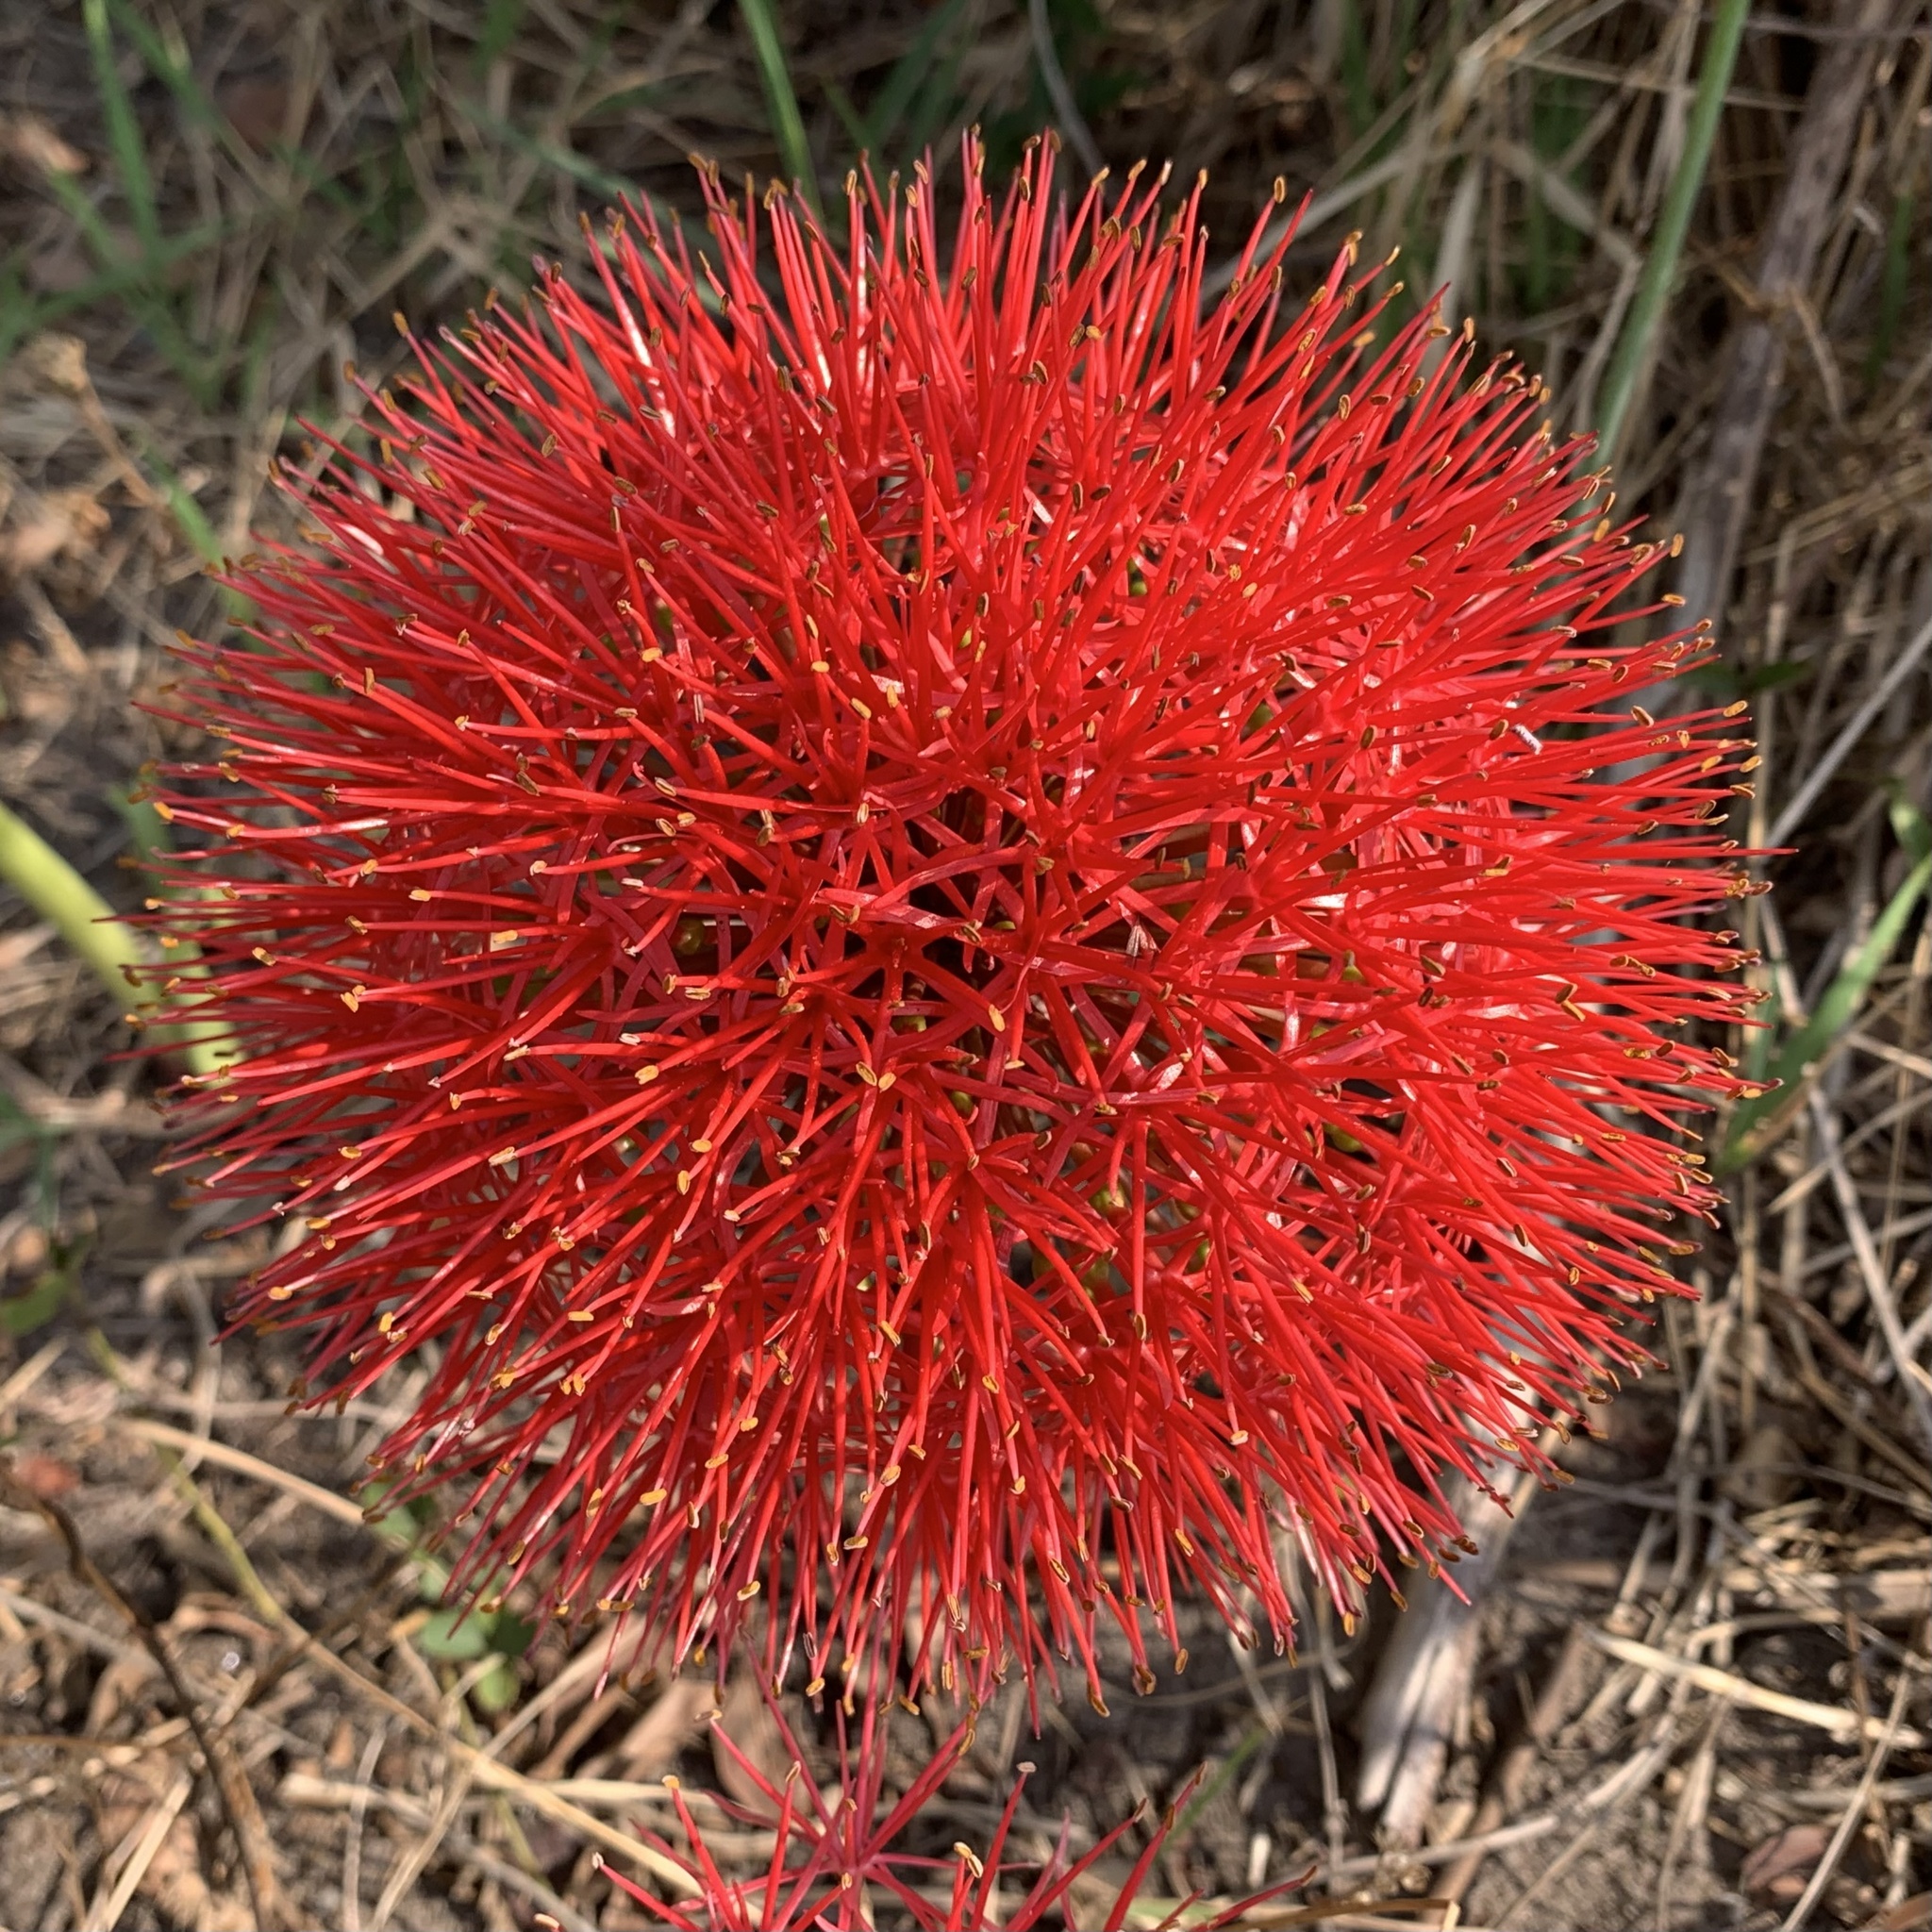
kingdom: Plantae
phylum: Tracheophyta
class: Liliopsida
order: Asparagales
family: Amaryllidaceae
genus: Scadoxus
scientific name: Scadoxus multiflorus
